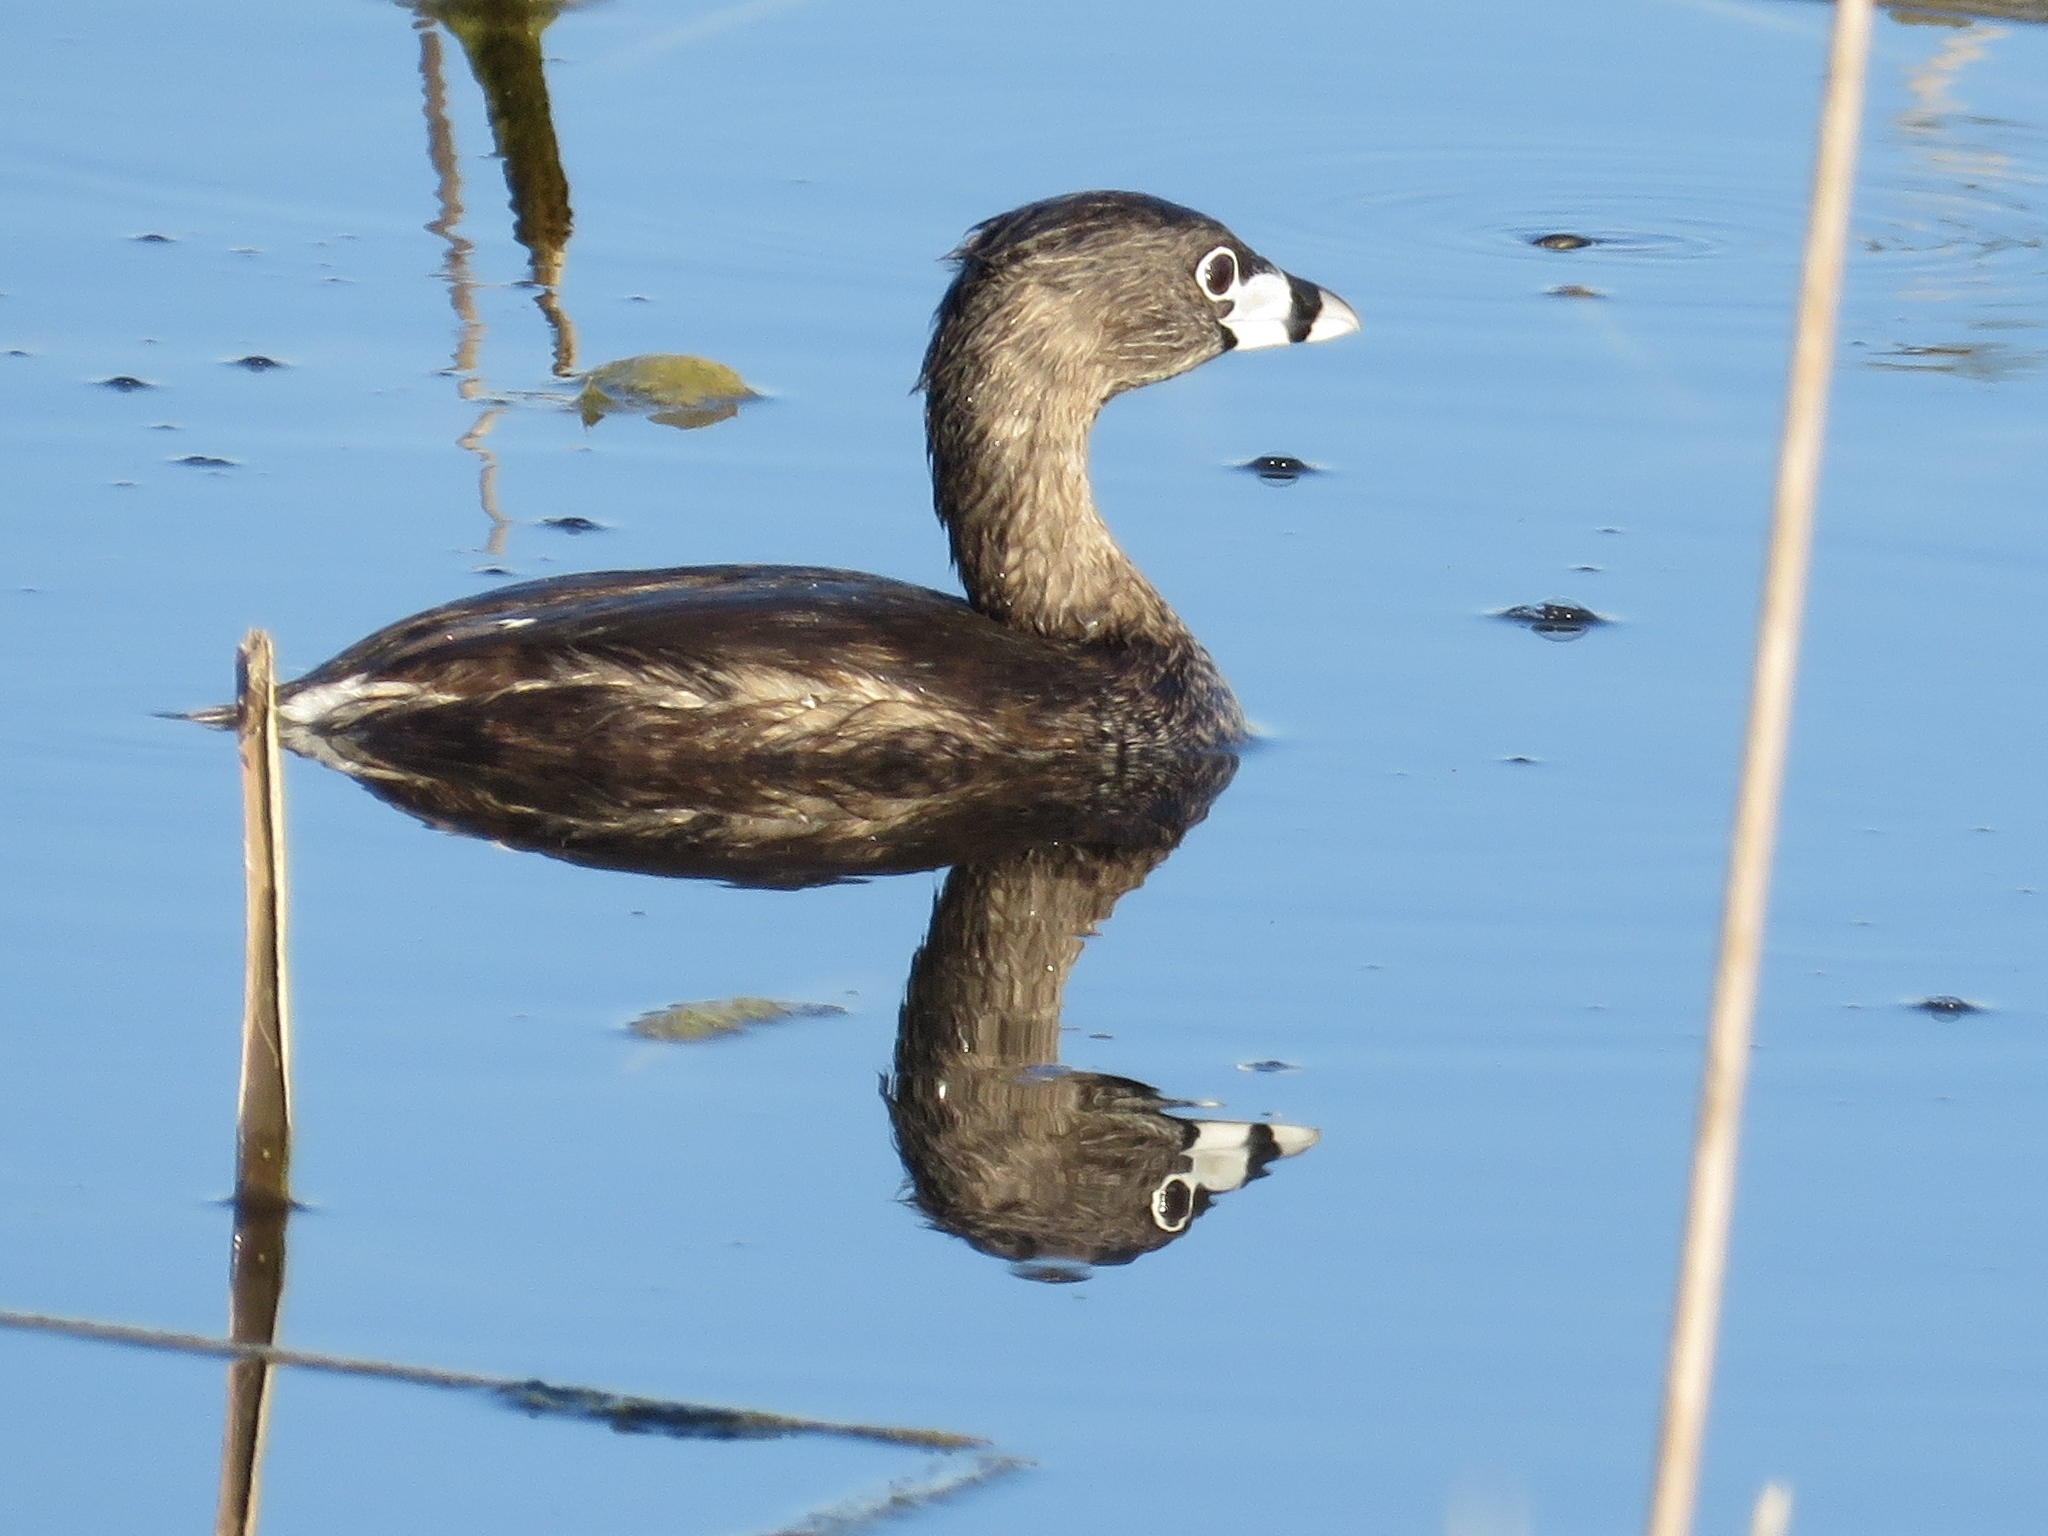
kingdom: Animalia
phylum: Chordata
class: Aves
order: Podicipediformes
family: Podicipedidae
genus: Podilymbus
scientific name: Podilymbus podiceps
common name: Pied-billed grebe
